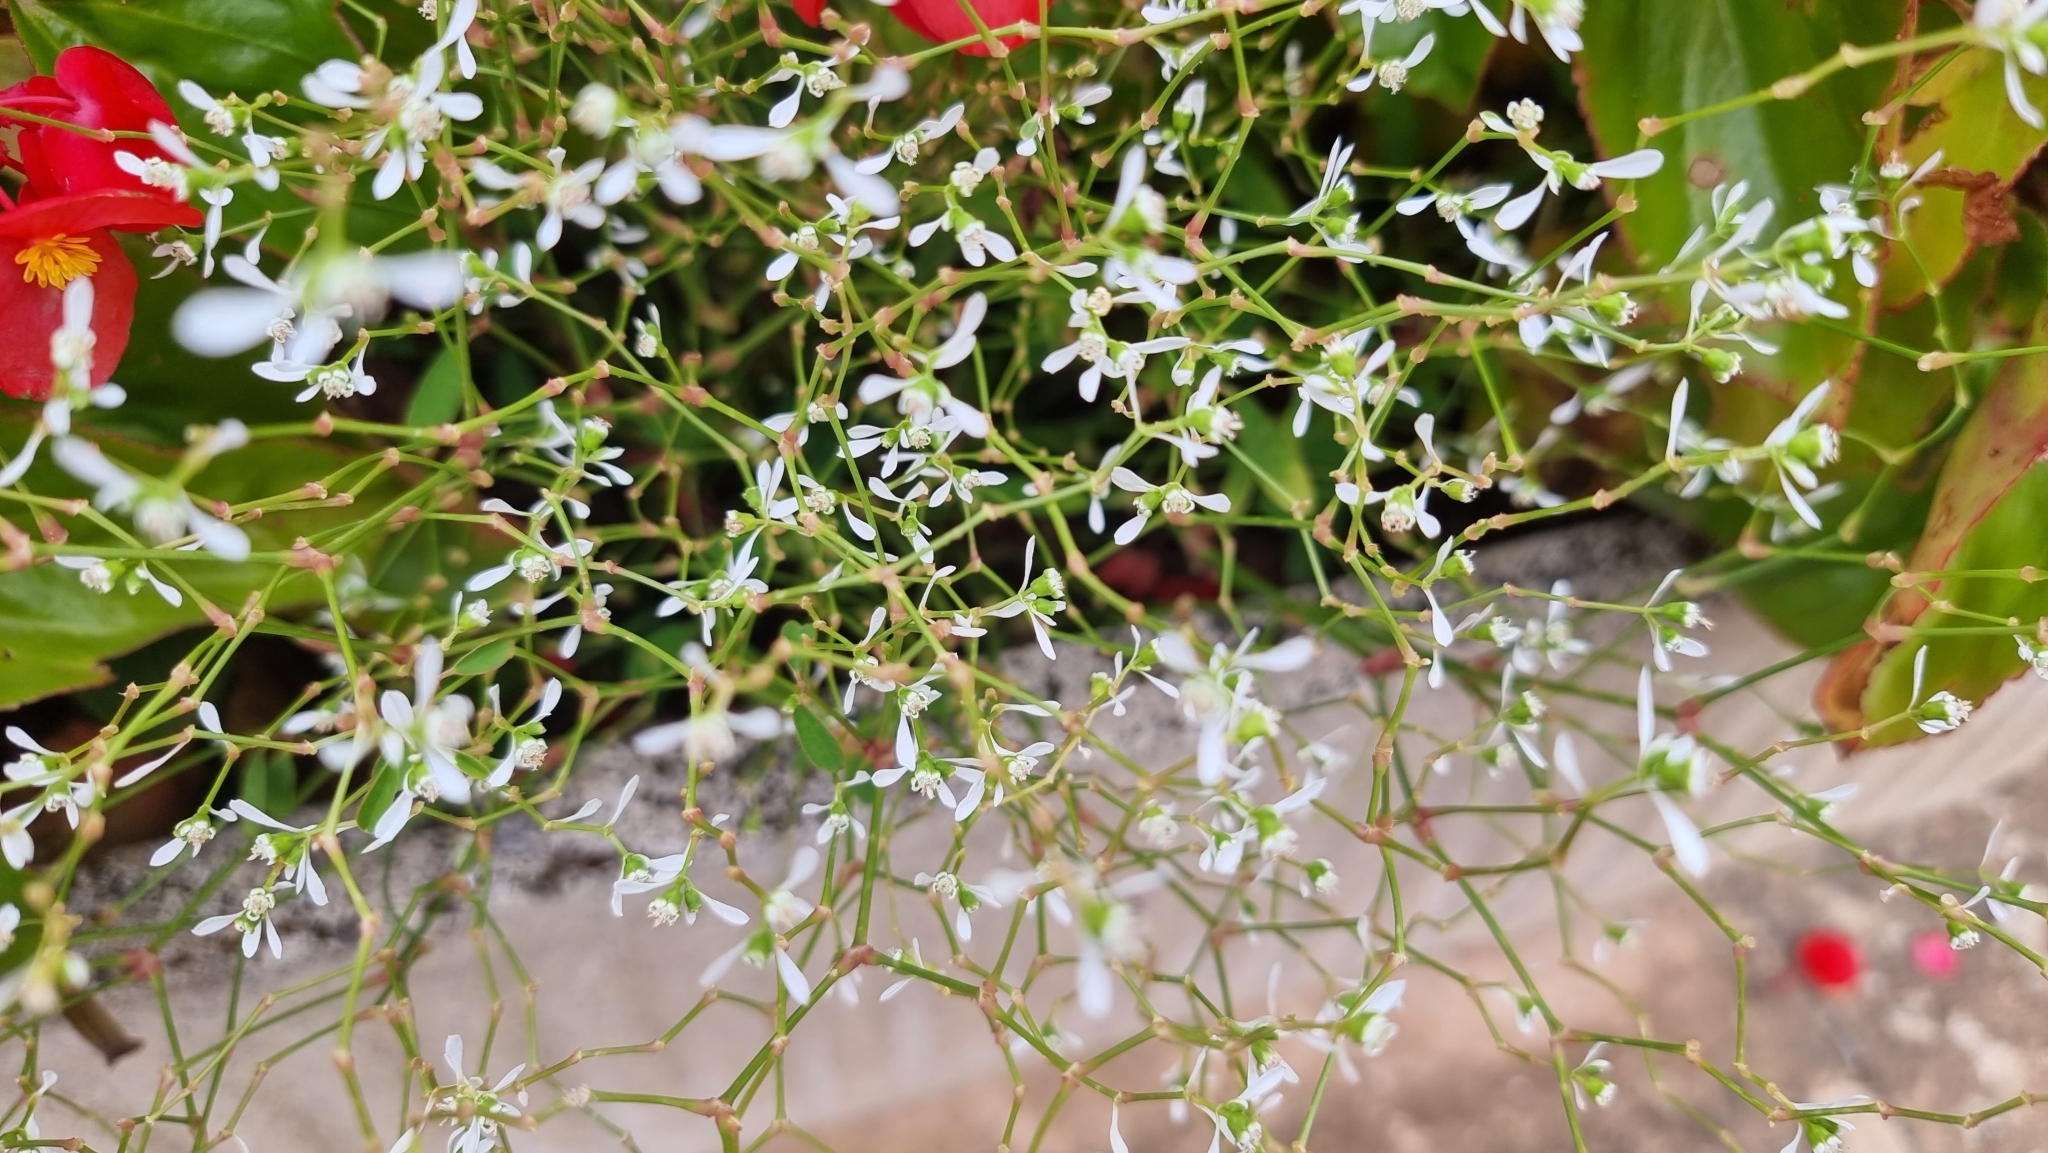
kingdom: Plantae
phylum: Tracheophyta
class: Magnoliopsida
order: Malpighiales
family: Euphorbiaceae
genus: Euphorbia
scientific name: Euphorbia graminea
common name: Grassleaf spurge
